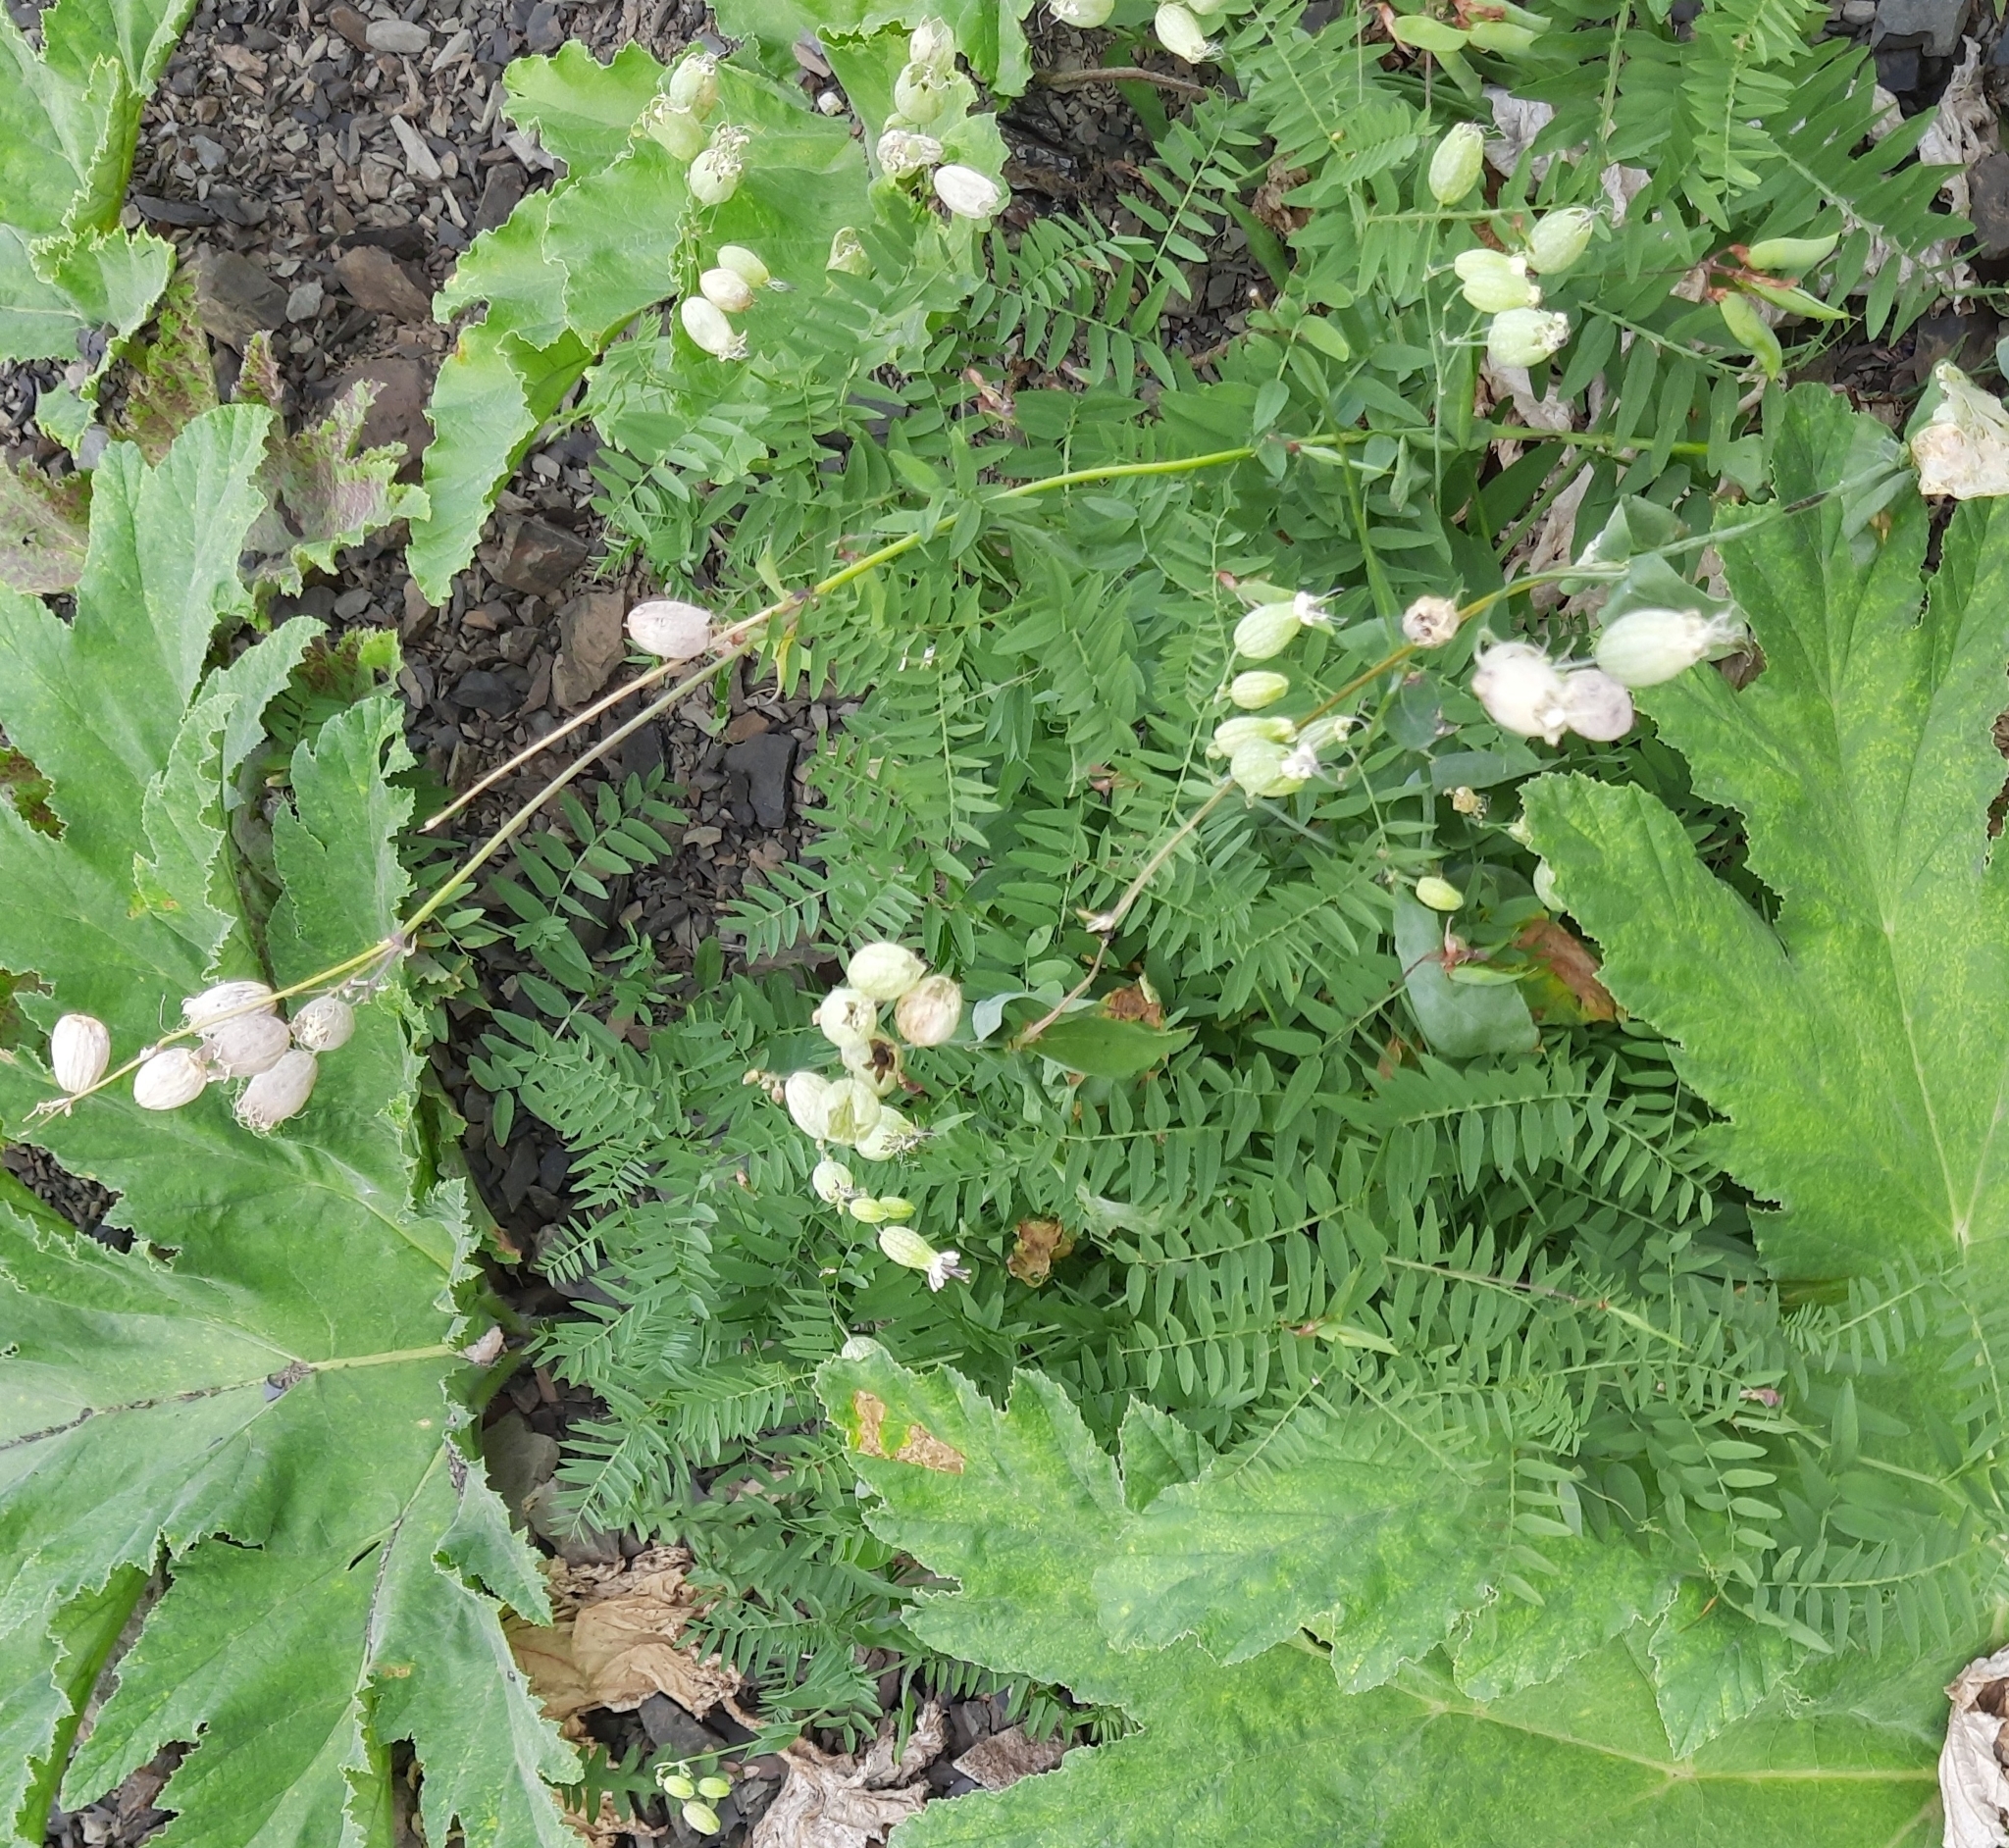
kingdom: Plantae
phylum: Tracheophyta
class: Magnoliopsida
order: Caryophyllales
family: Caryophyllaceae
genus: Silene
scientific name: Silene vulgaris
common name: Bladder campion
